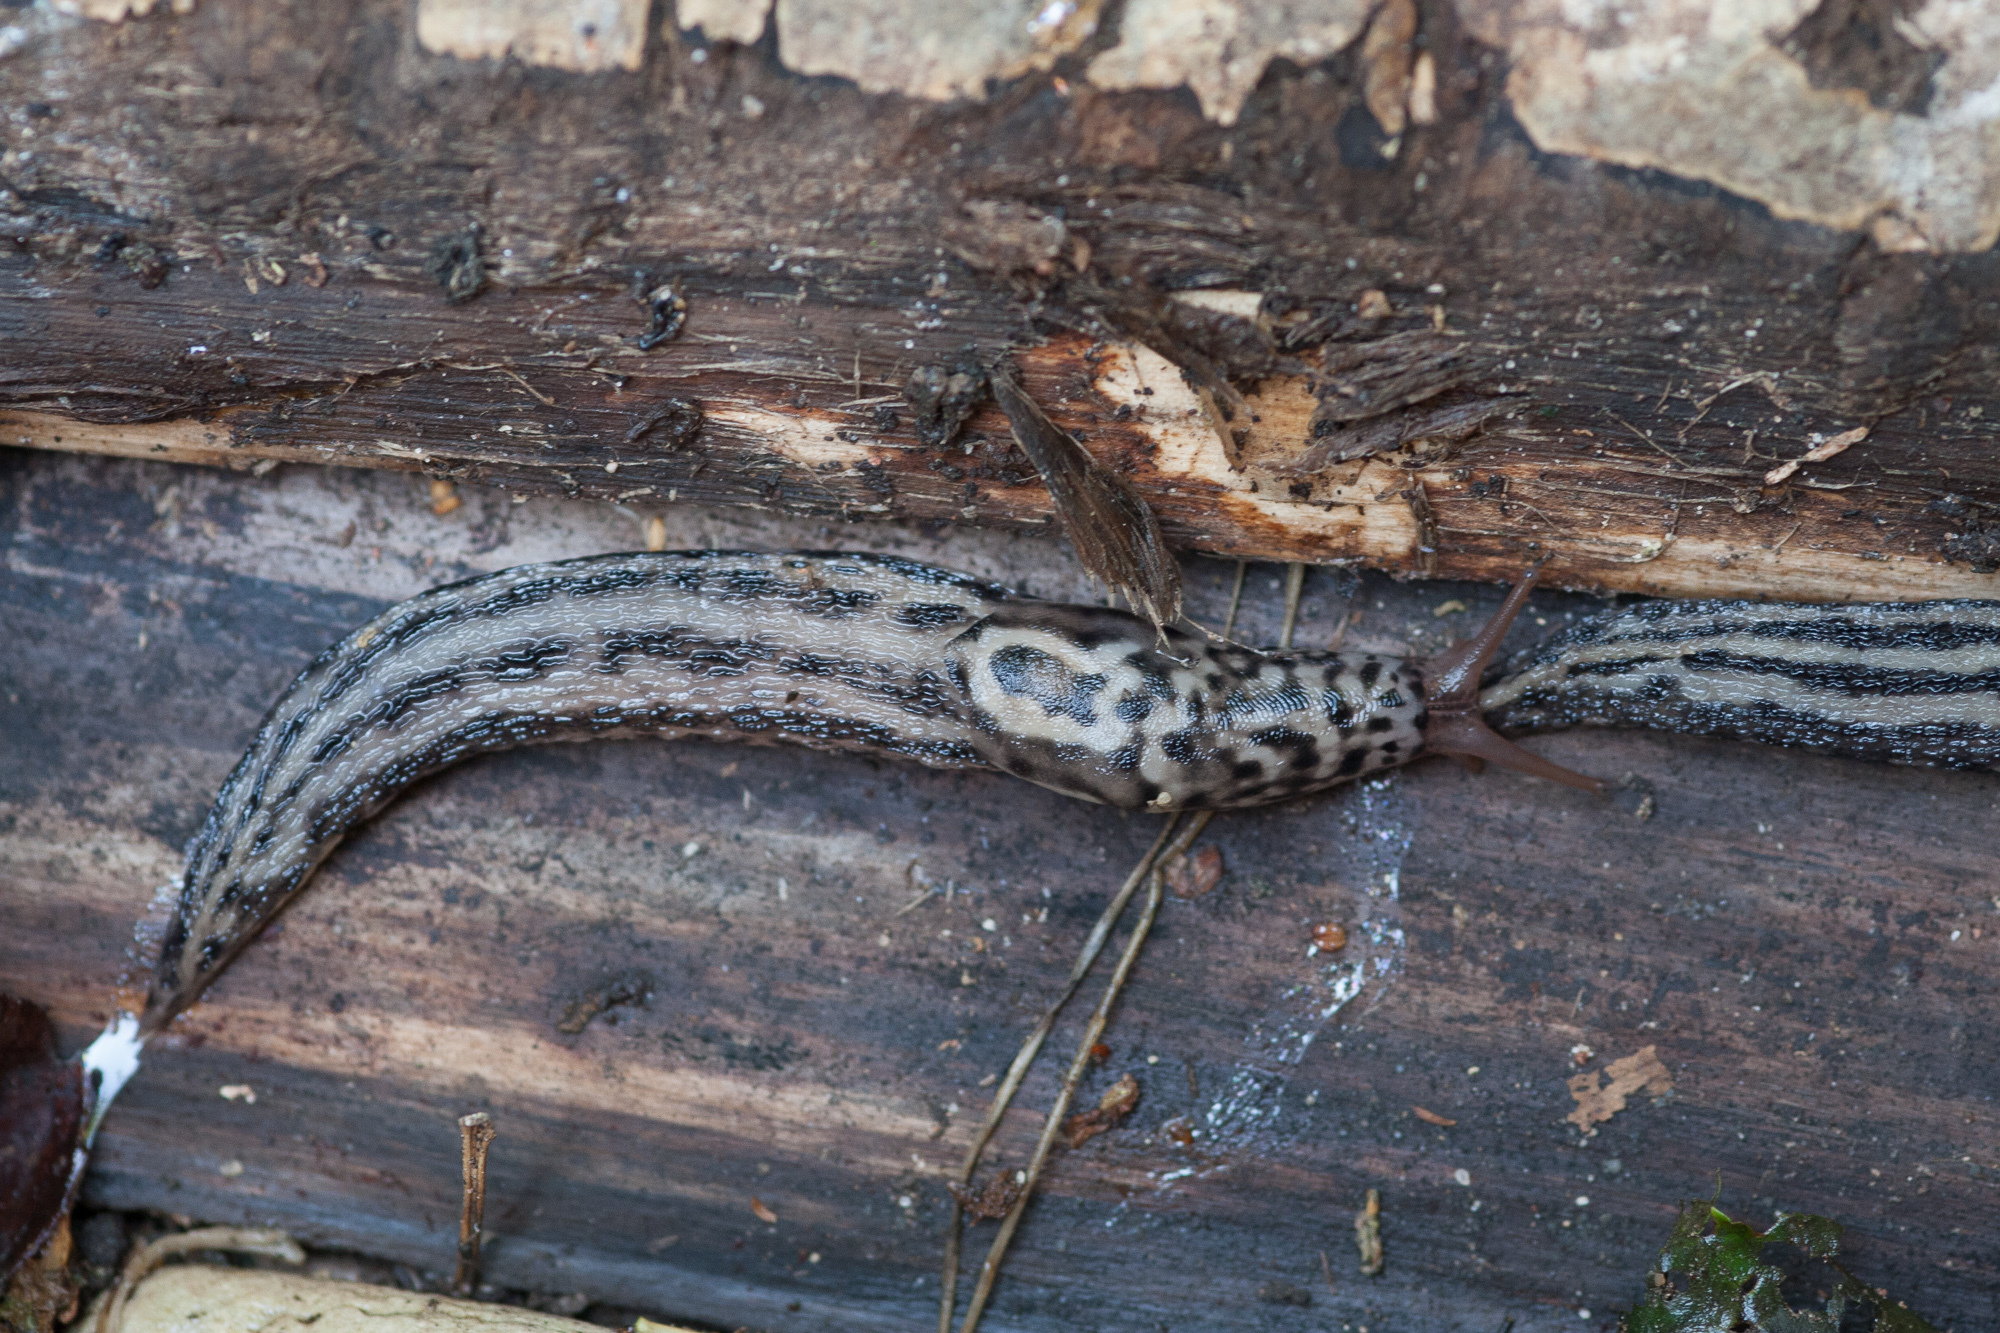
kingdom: Animalia
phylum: Mollusca
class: Gastropoda
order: Stylommatophora
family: Limacidae
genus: Limax
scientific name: Limax maximus
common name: Great grey slug
